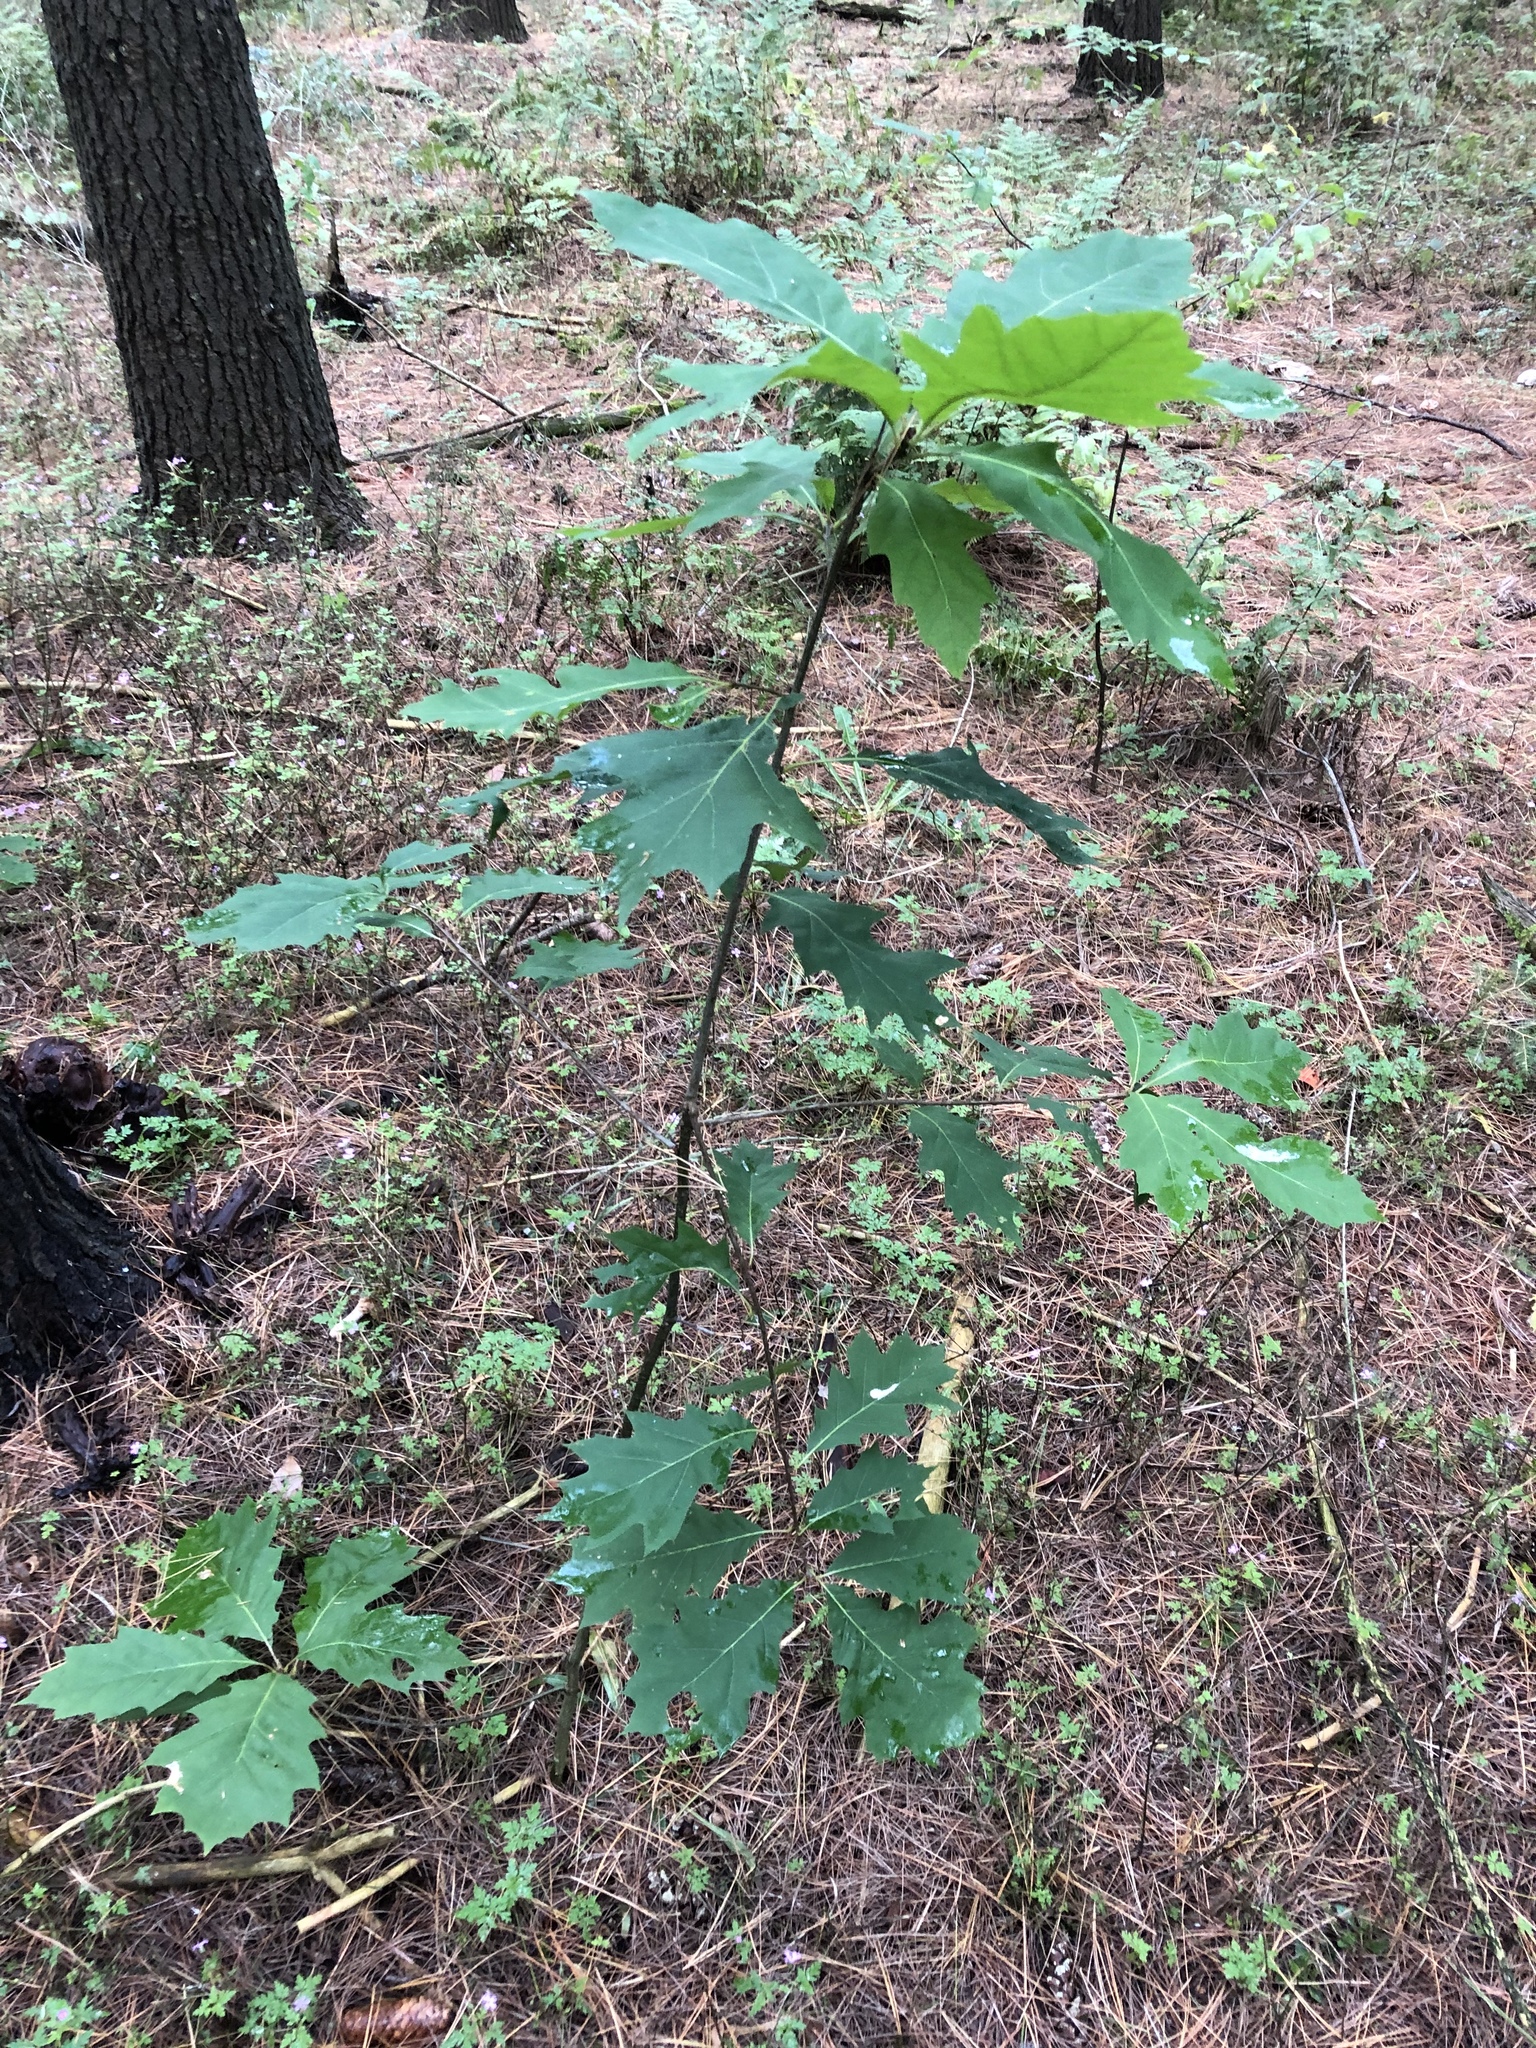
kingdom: Plantae
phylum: Tracheophyta
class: Magnoliopsida
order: Fagales
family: Fagaceae
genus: Quercus
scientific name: Quercus rubra
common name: Red oak
